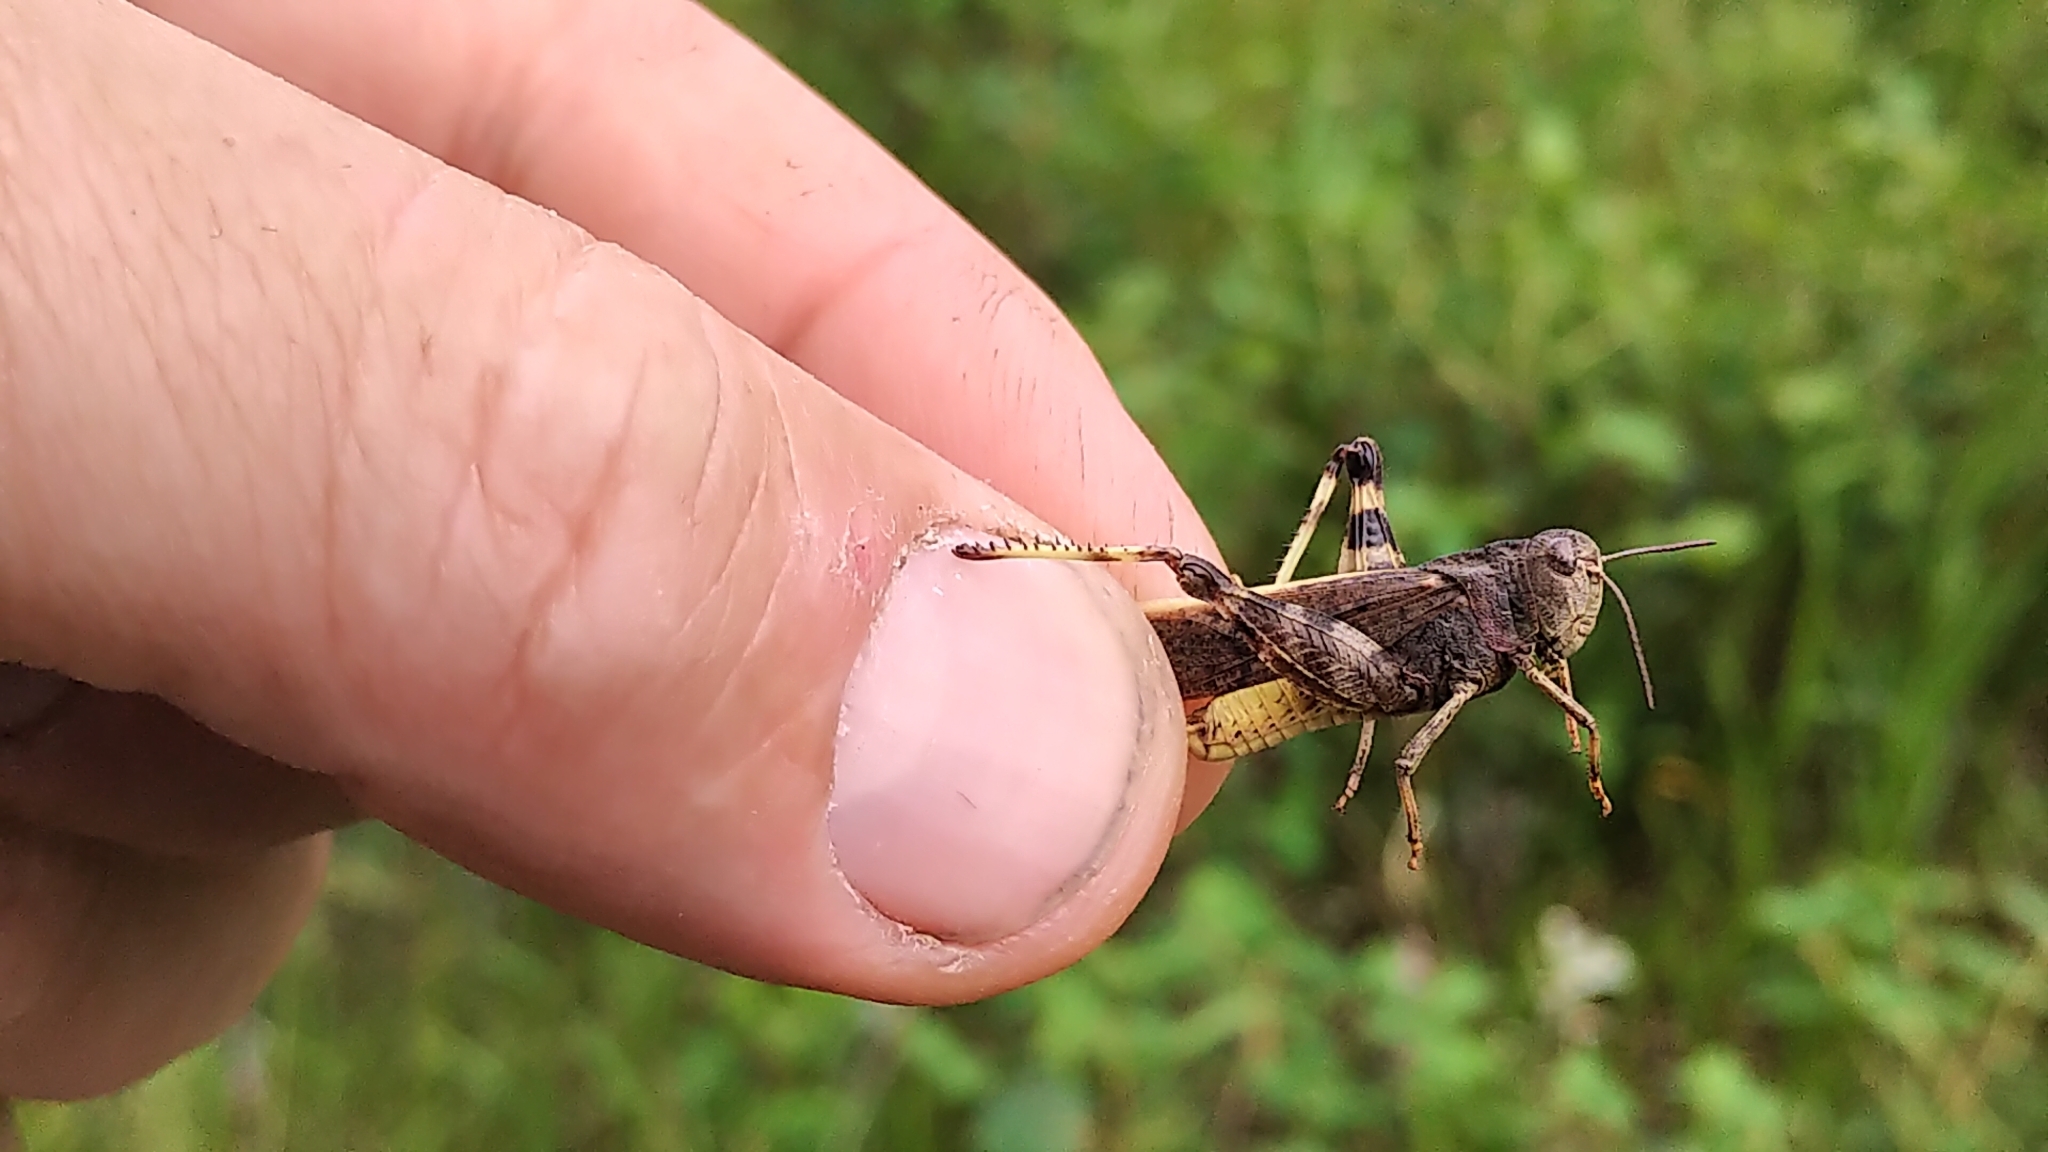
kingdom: Animalia
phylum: Arthropoda
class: Insecta
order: Orthoptera
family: Acrididae
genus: Arphia
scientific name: Arphia conspersa
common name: Speckle-winged rangeland grasshopper
